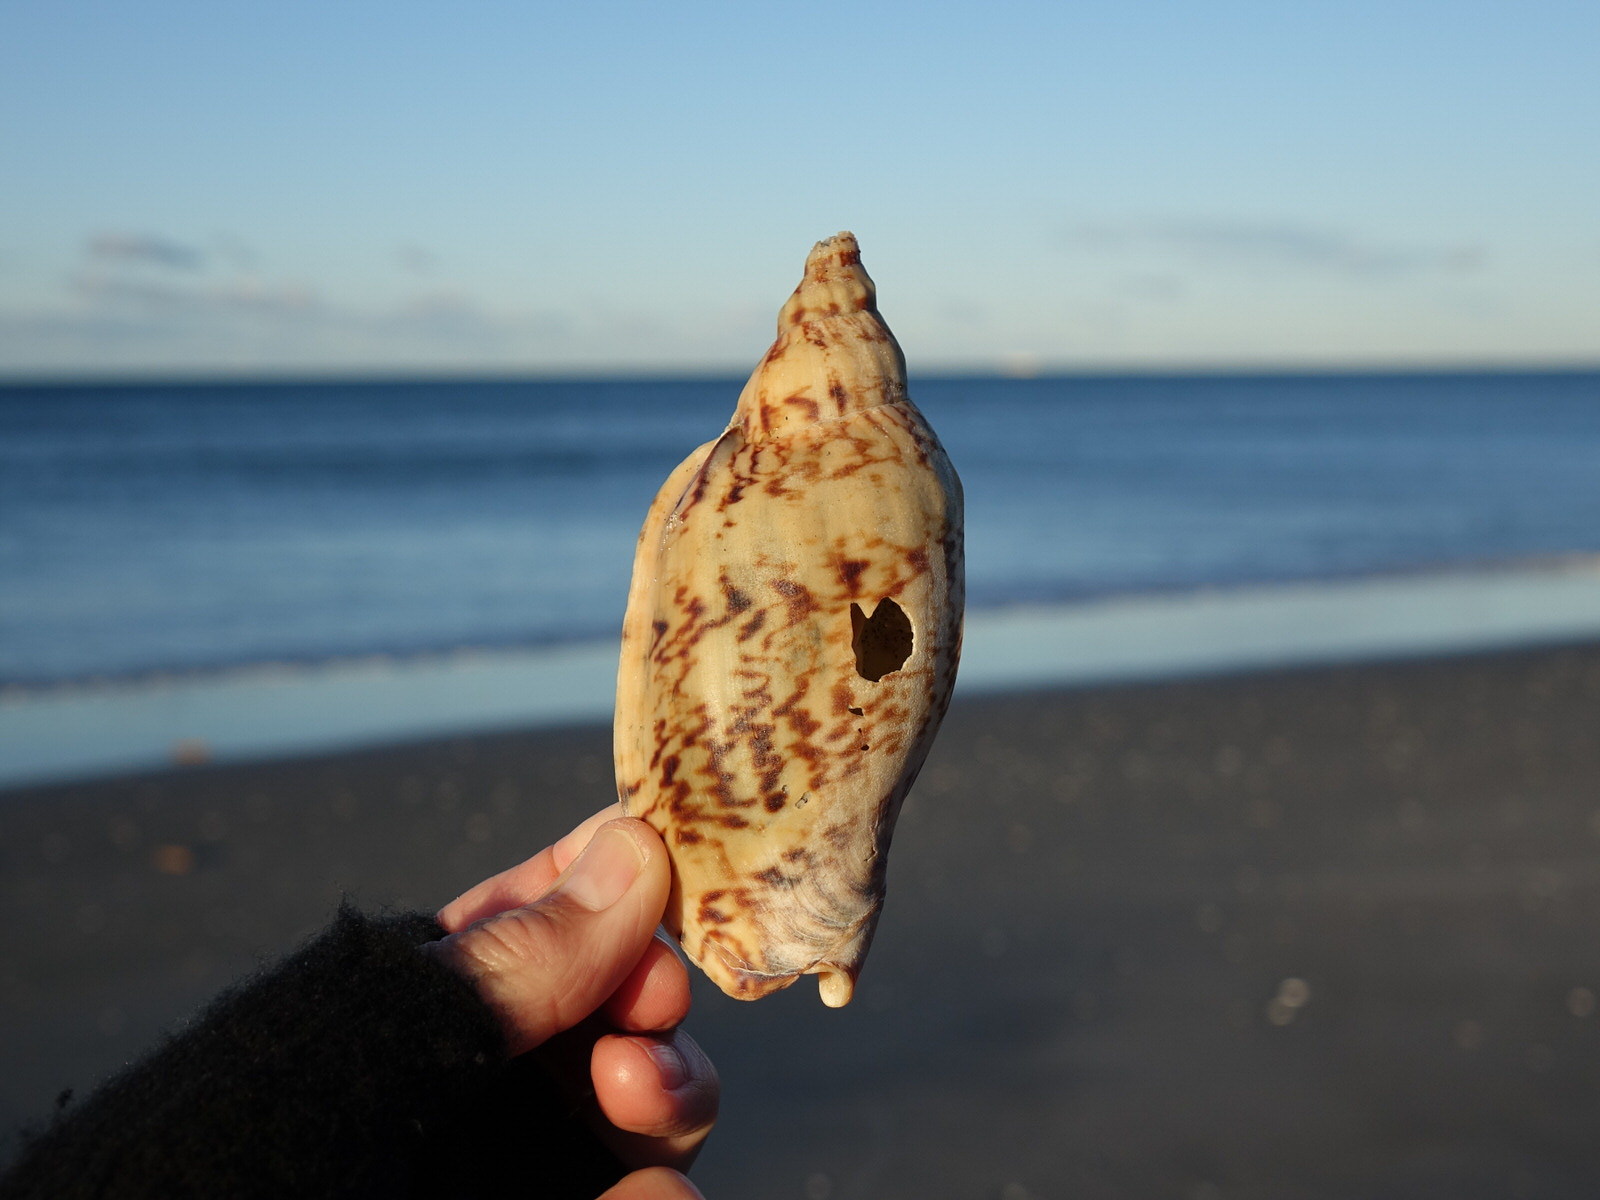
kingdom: Animalia
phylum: Mollusca
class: Gastropoda
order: Neogastropoda
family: Volutidae
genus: Alcithoe
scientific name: Alcithoe arabica
